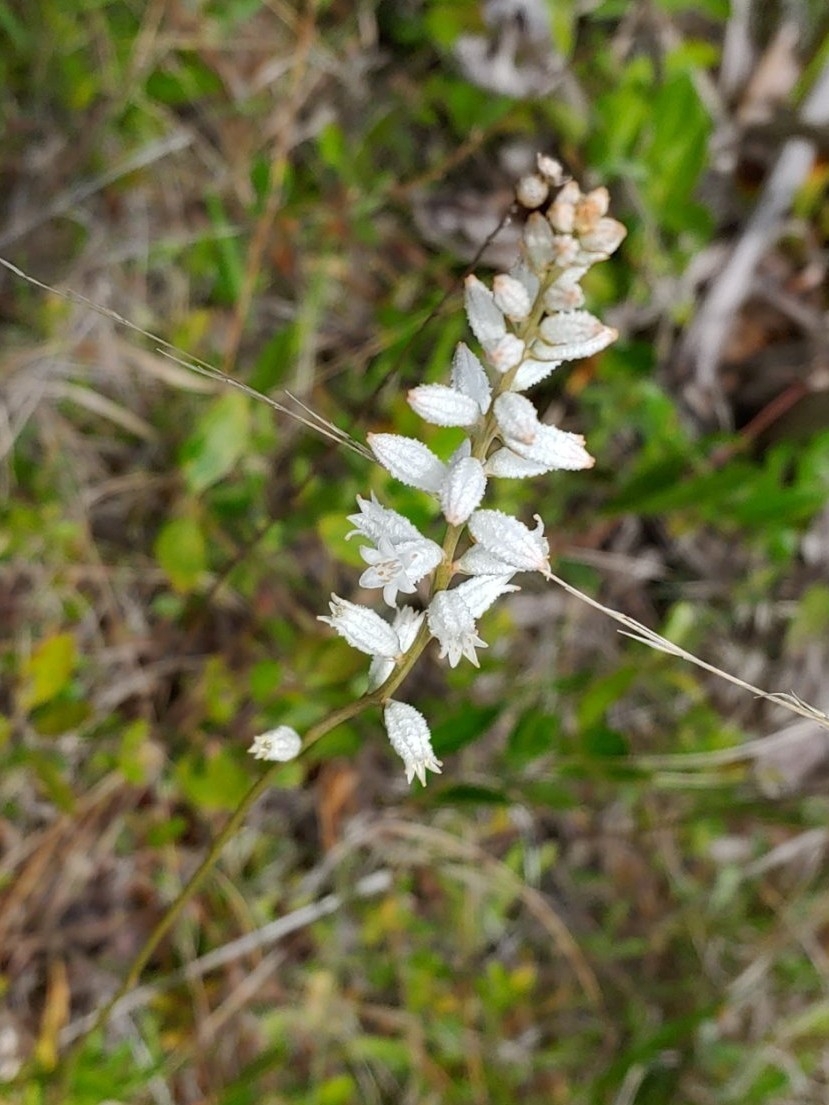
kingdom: Plantae
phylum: Tracheophyta
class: Liliopsida
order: Dioscoreales
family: Nartheciaceae
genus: Aletris
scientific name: Aletris farinosa
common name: Colicroot
